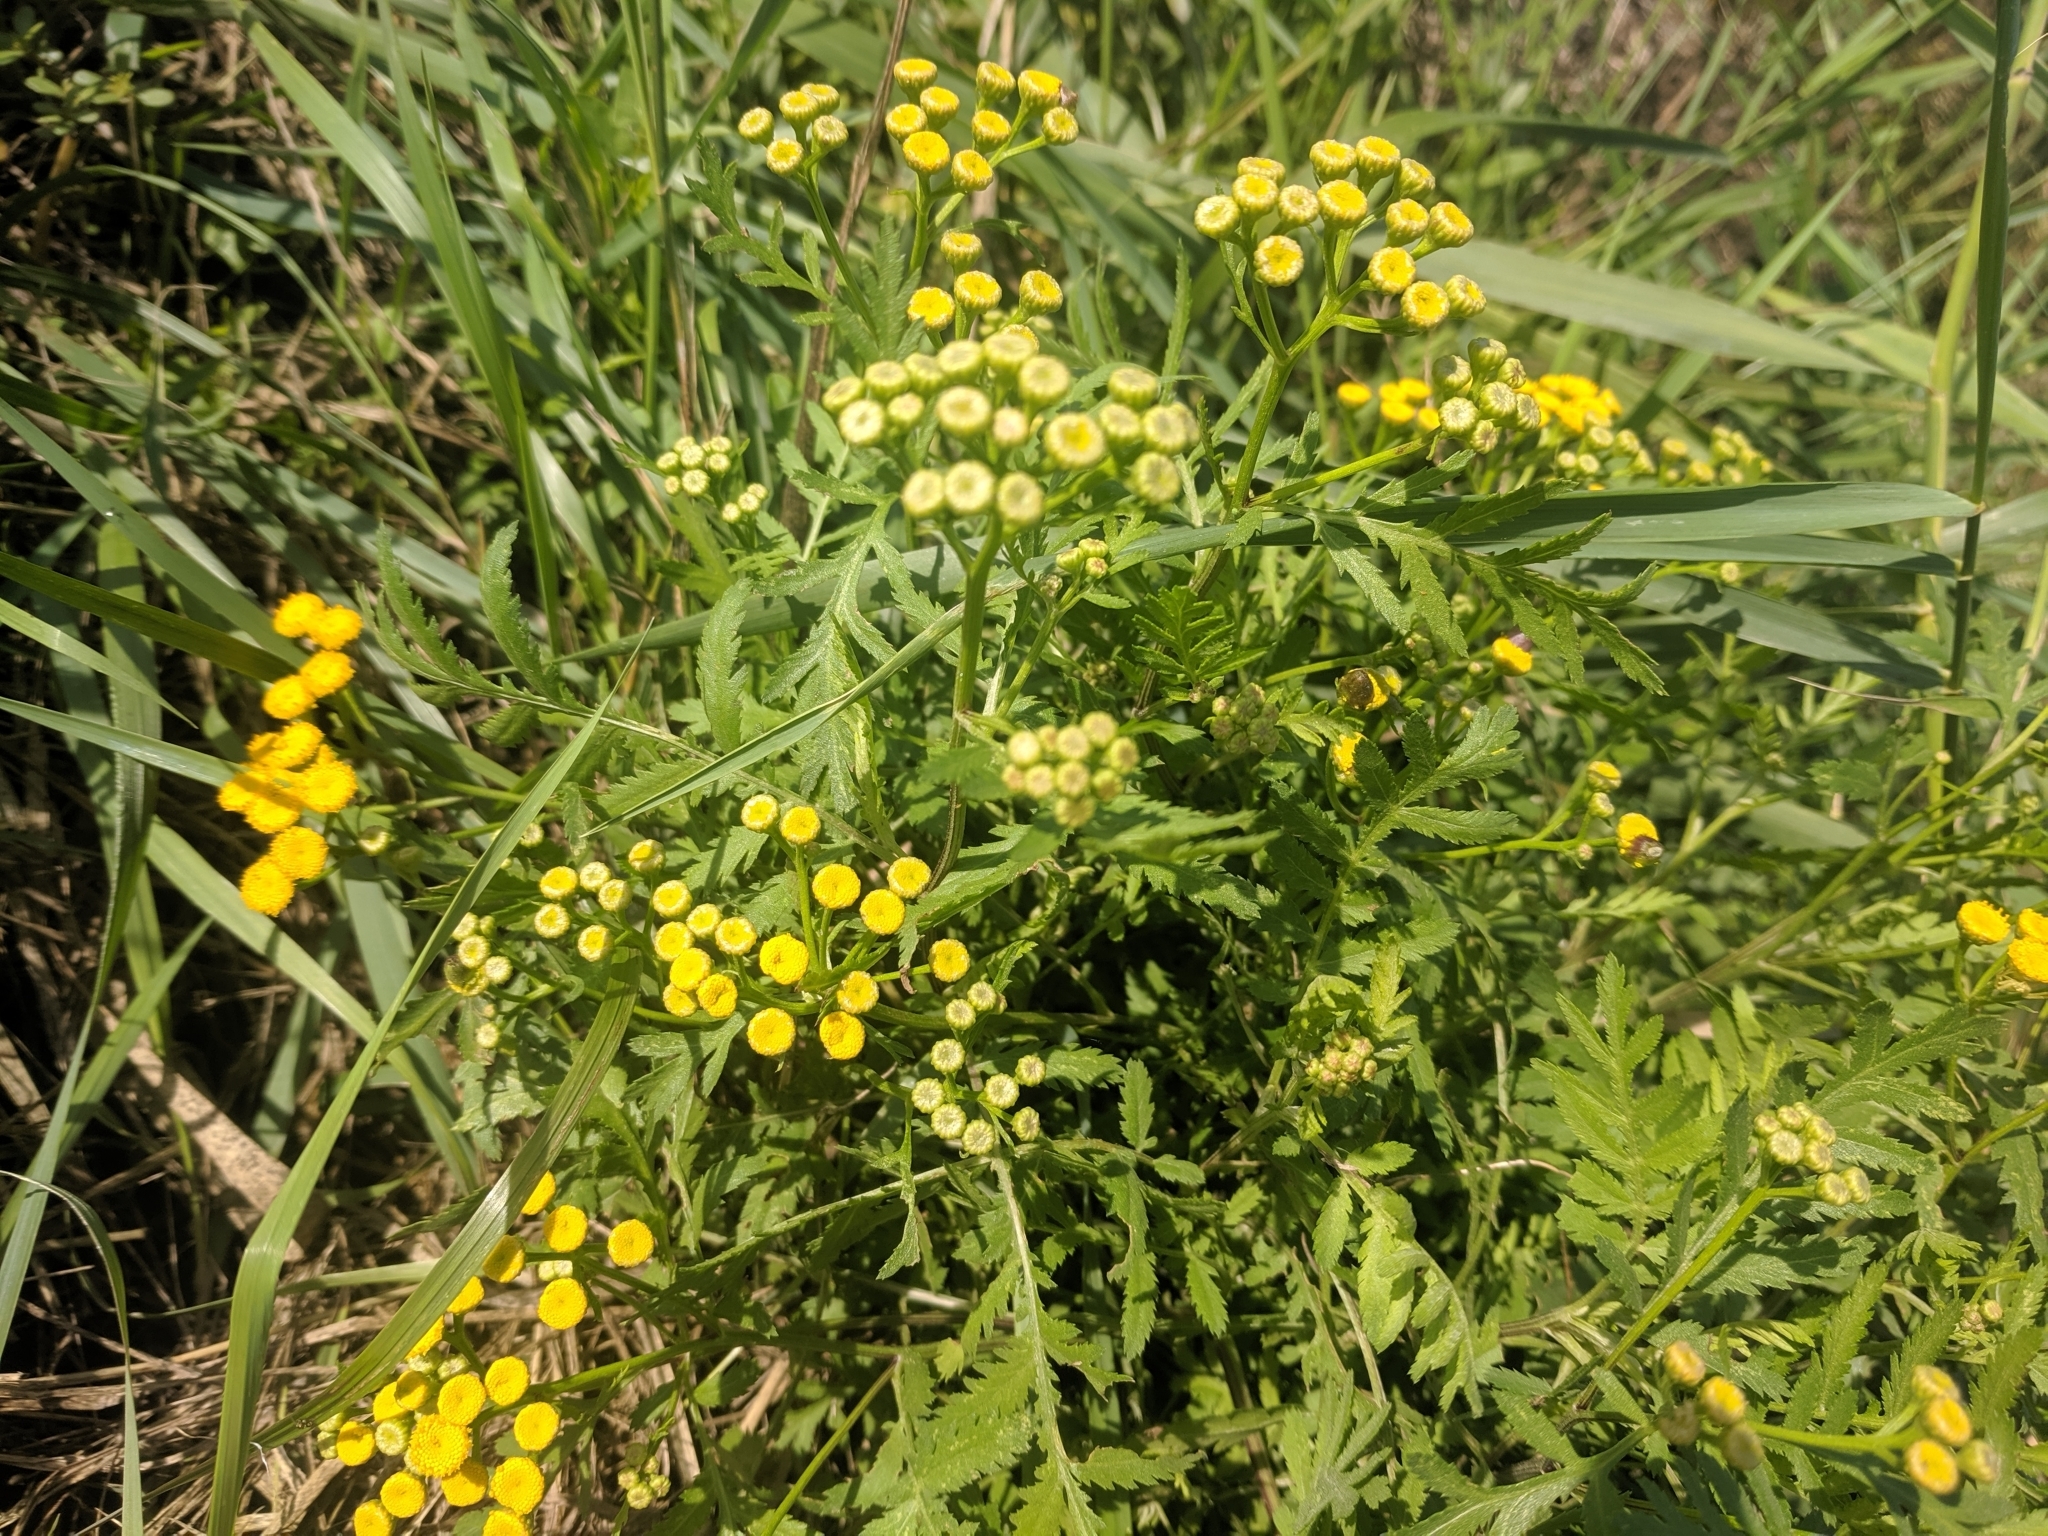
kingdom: Plantae
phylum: Tracheophyta
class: Magnoliopsida
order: Asterales
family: Asteraceae
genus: Tanacetum
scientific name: Tanacetum vulgare
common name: Common tansy
